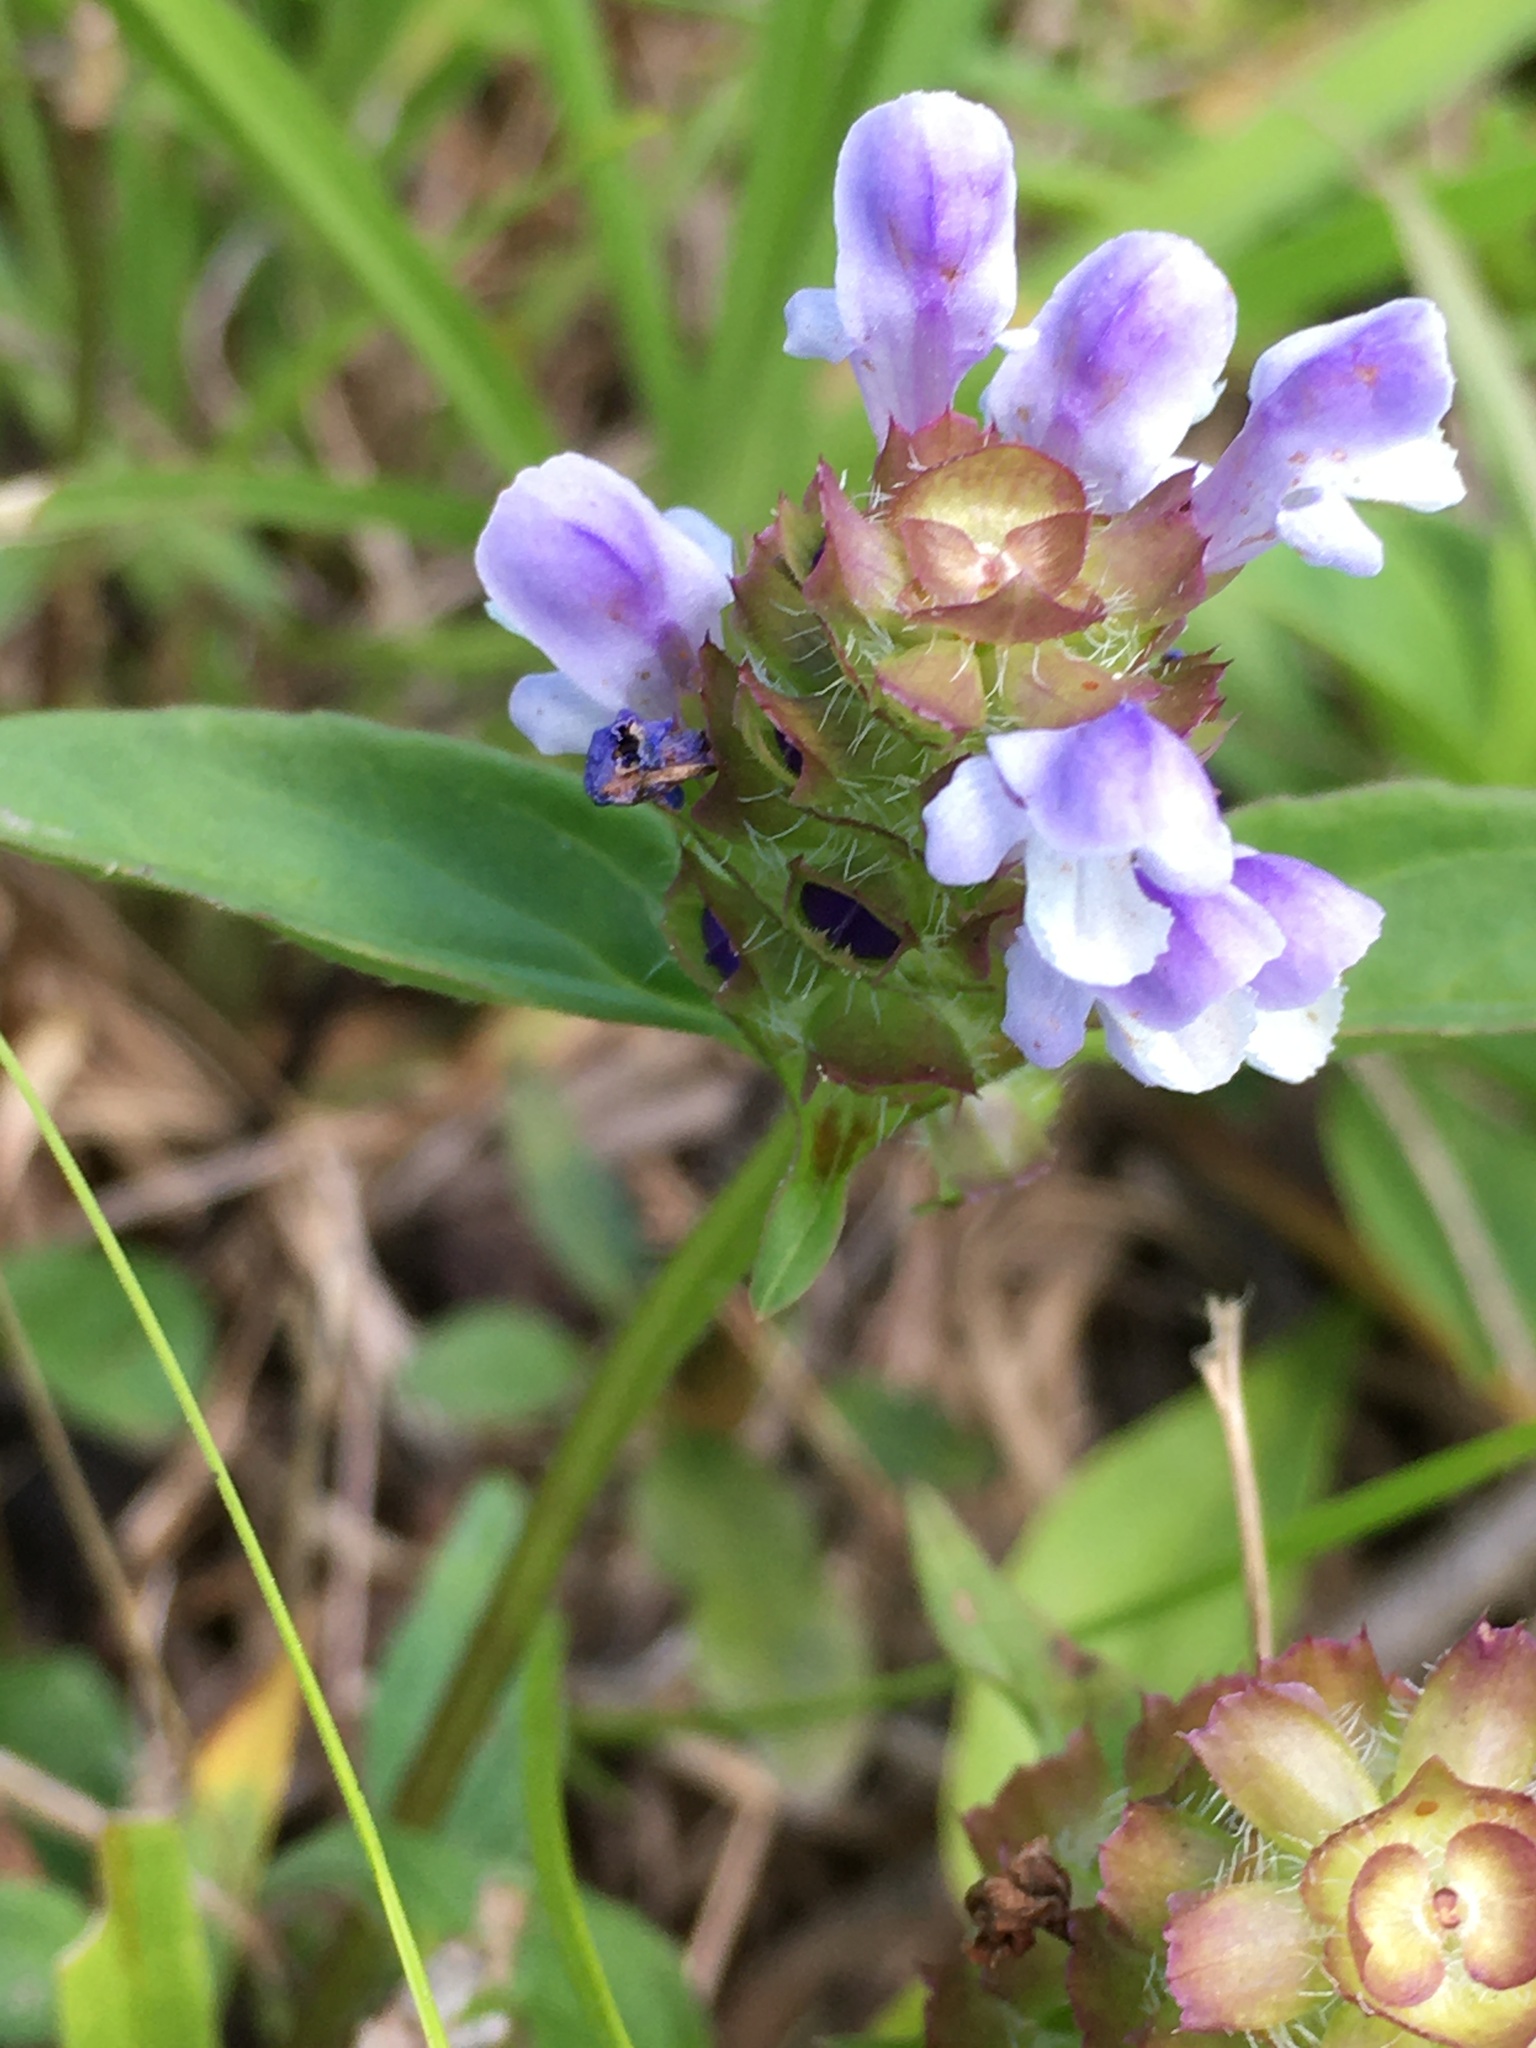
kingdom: Plantae
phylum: Tracheophyta
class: Magnoliopsida
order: Lamiales
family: Lamiaceae
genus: Prunella
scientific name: Prunella vulgaris
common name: Heal-all
